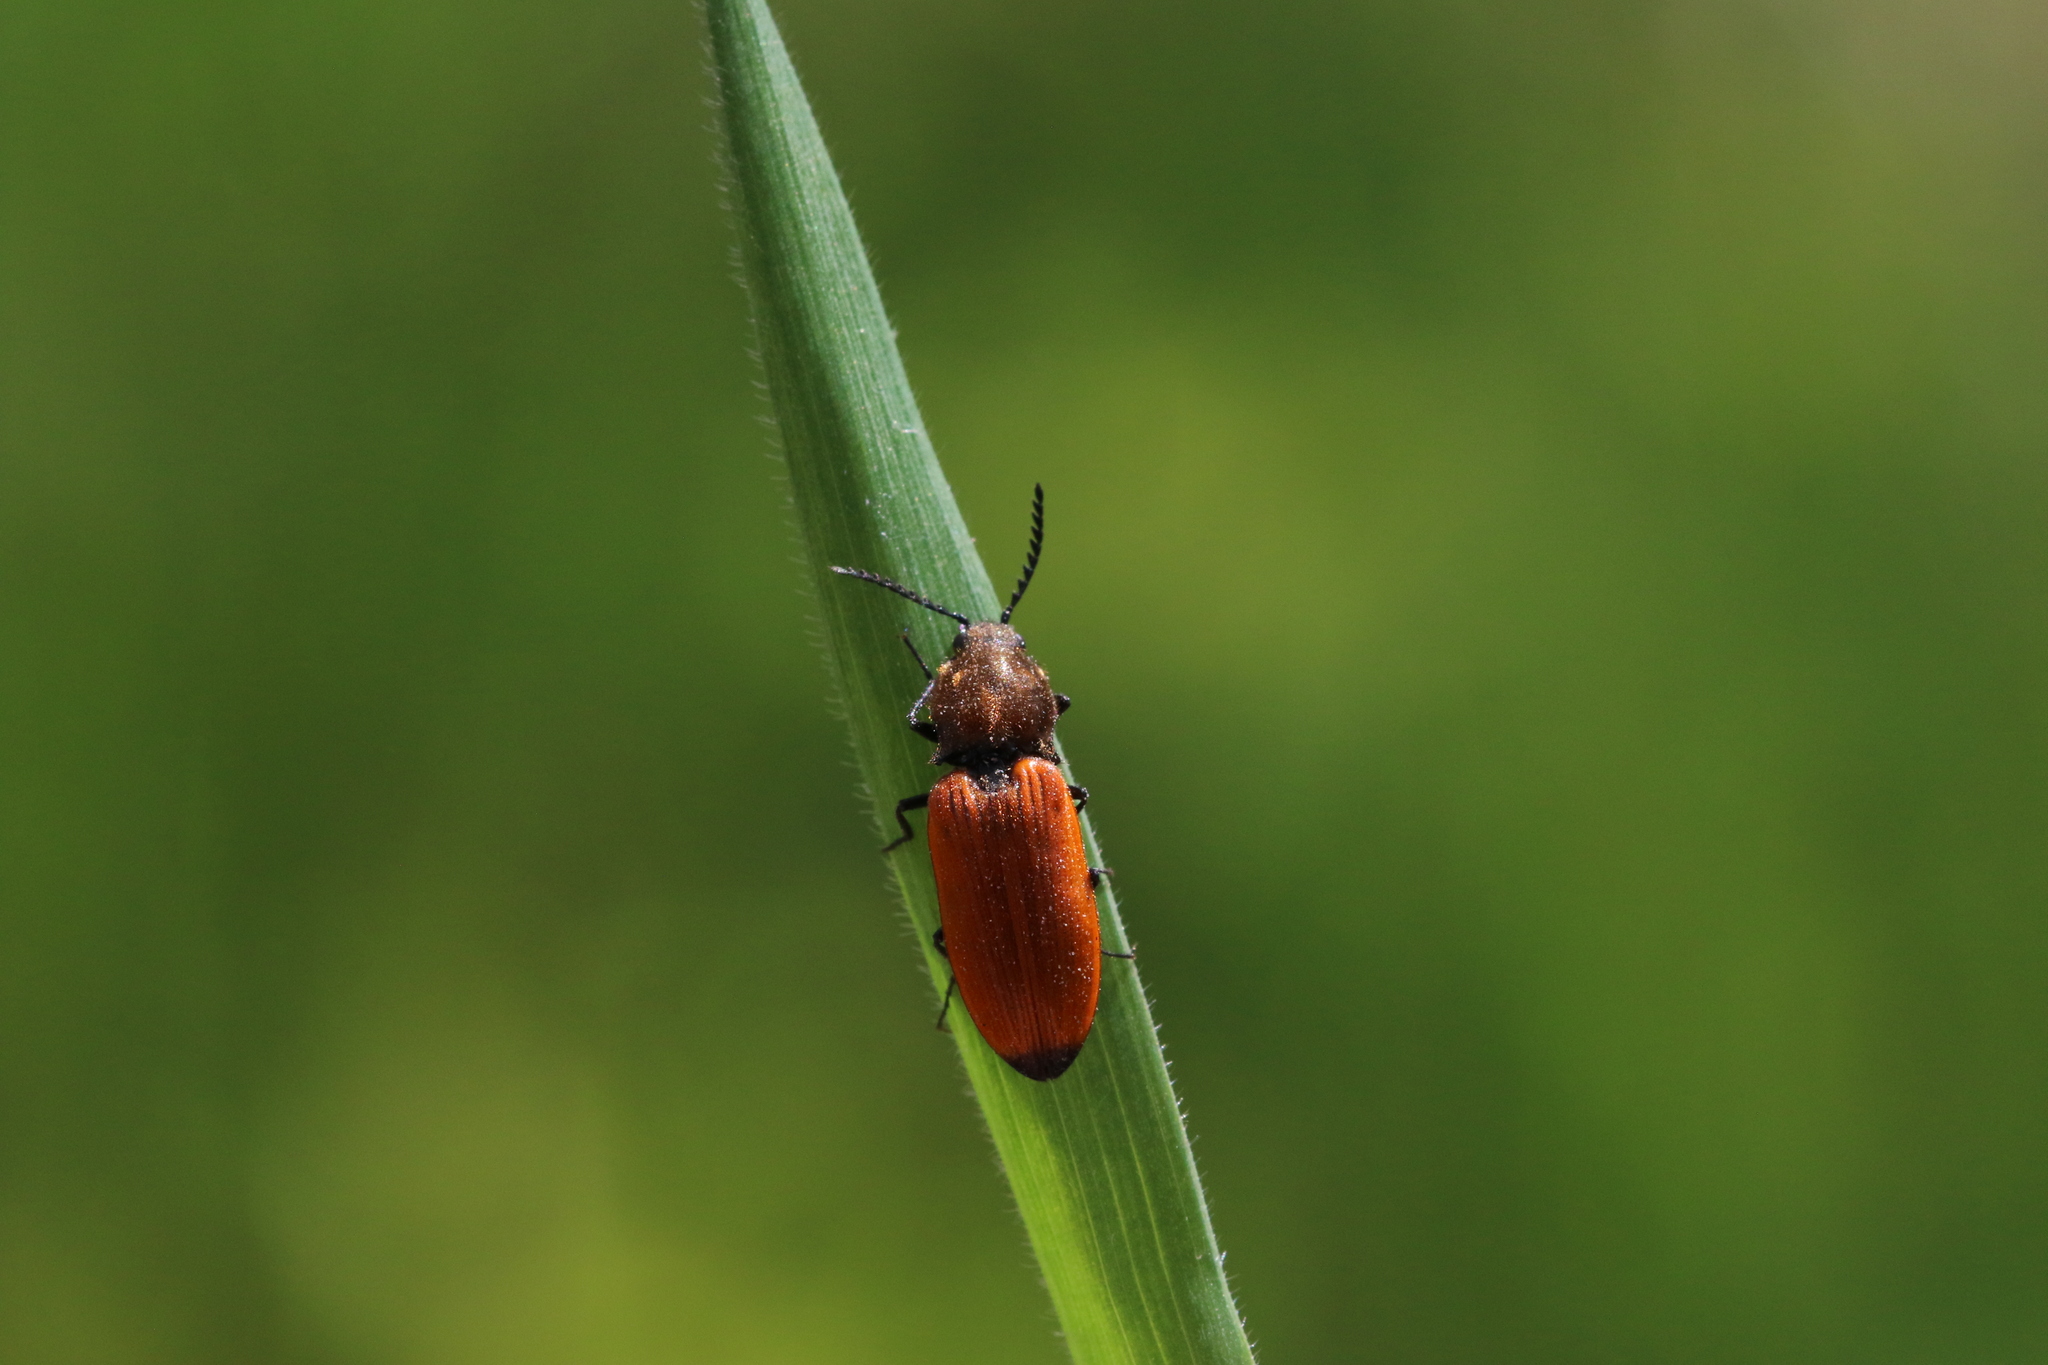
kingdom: Animalia
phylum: Arthropoda
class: Insecta
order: Coleoptera
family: Elateridae
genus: Anostirus
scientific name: Anostirus castaneus
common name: Chestnut coloured click beetle
